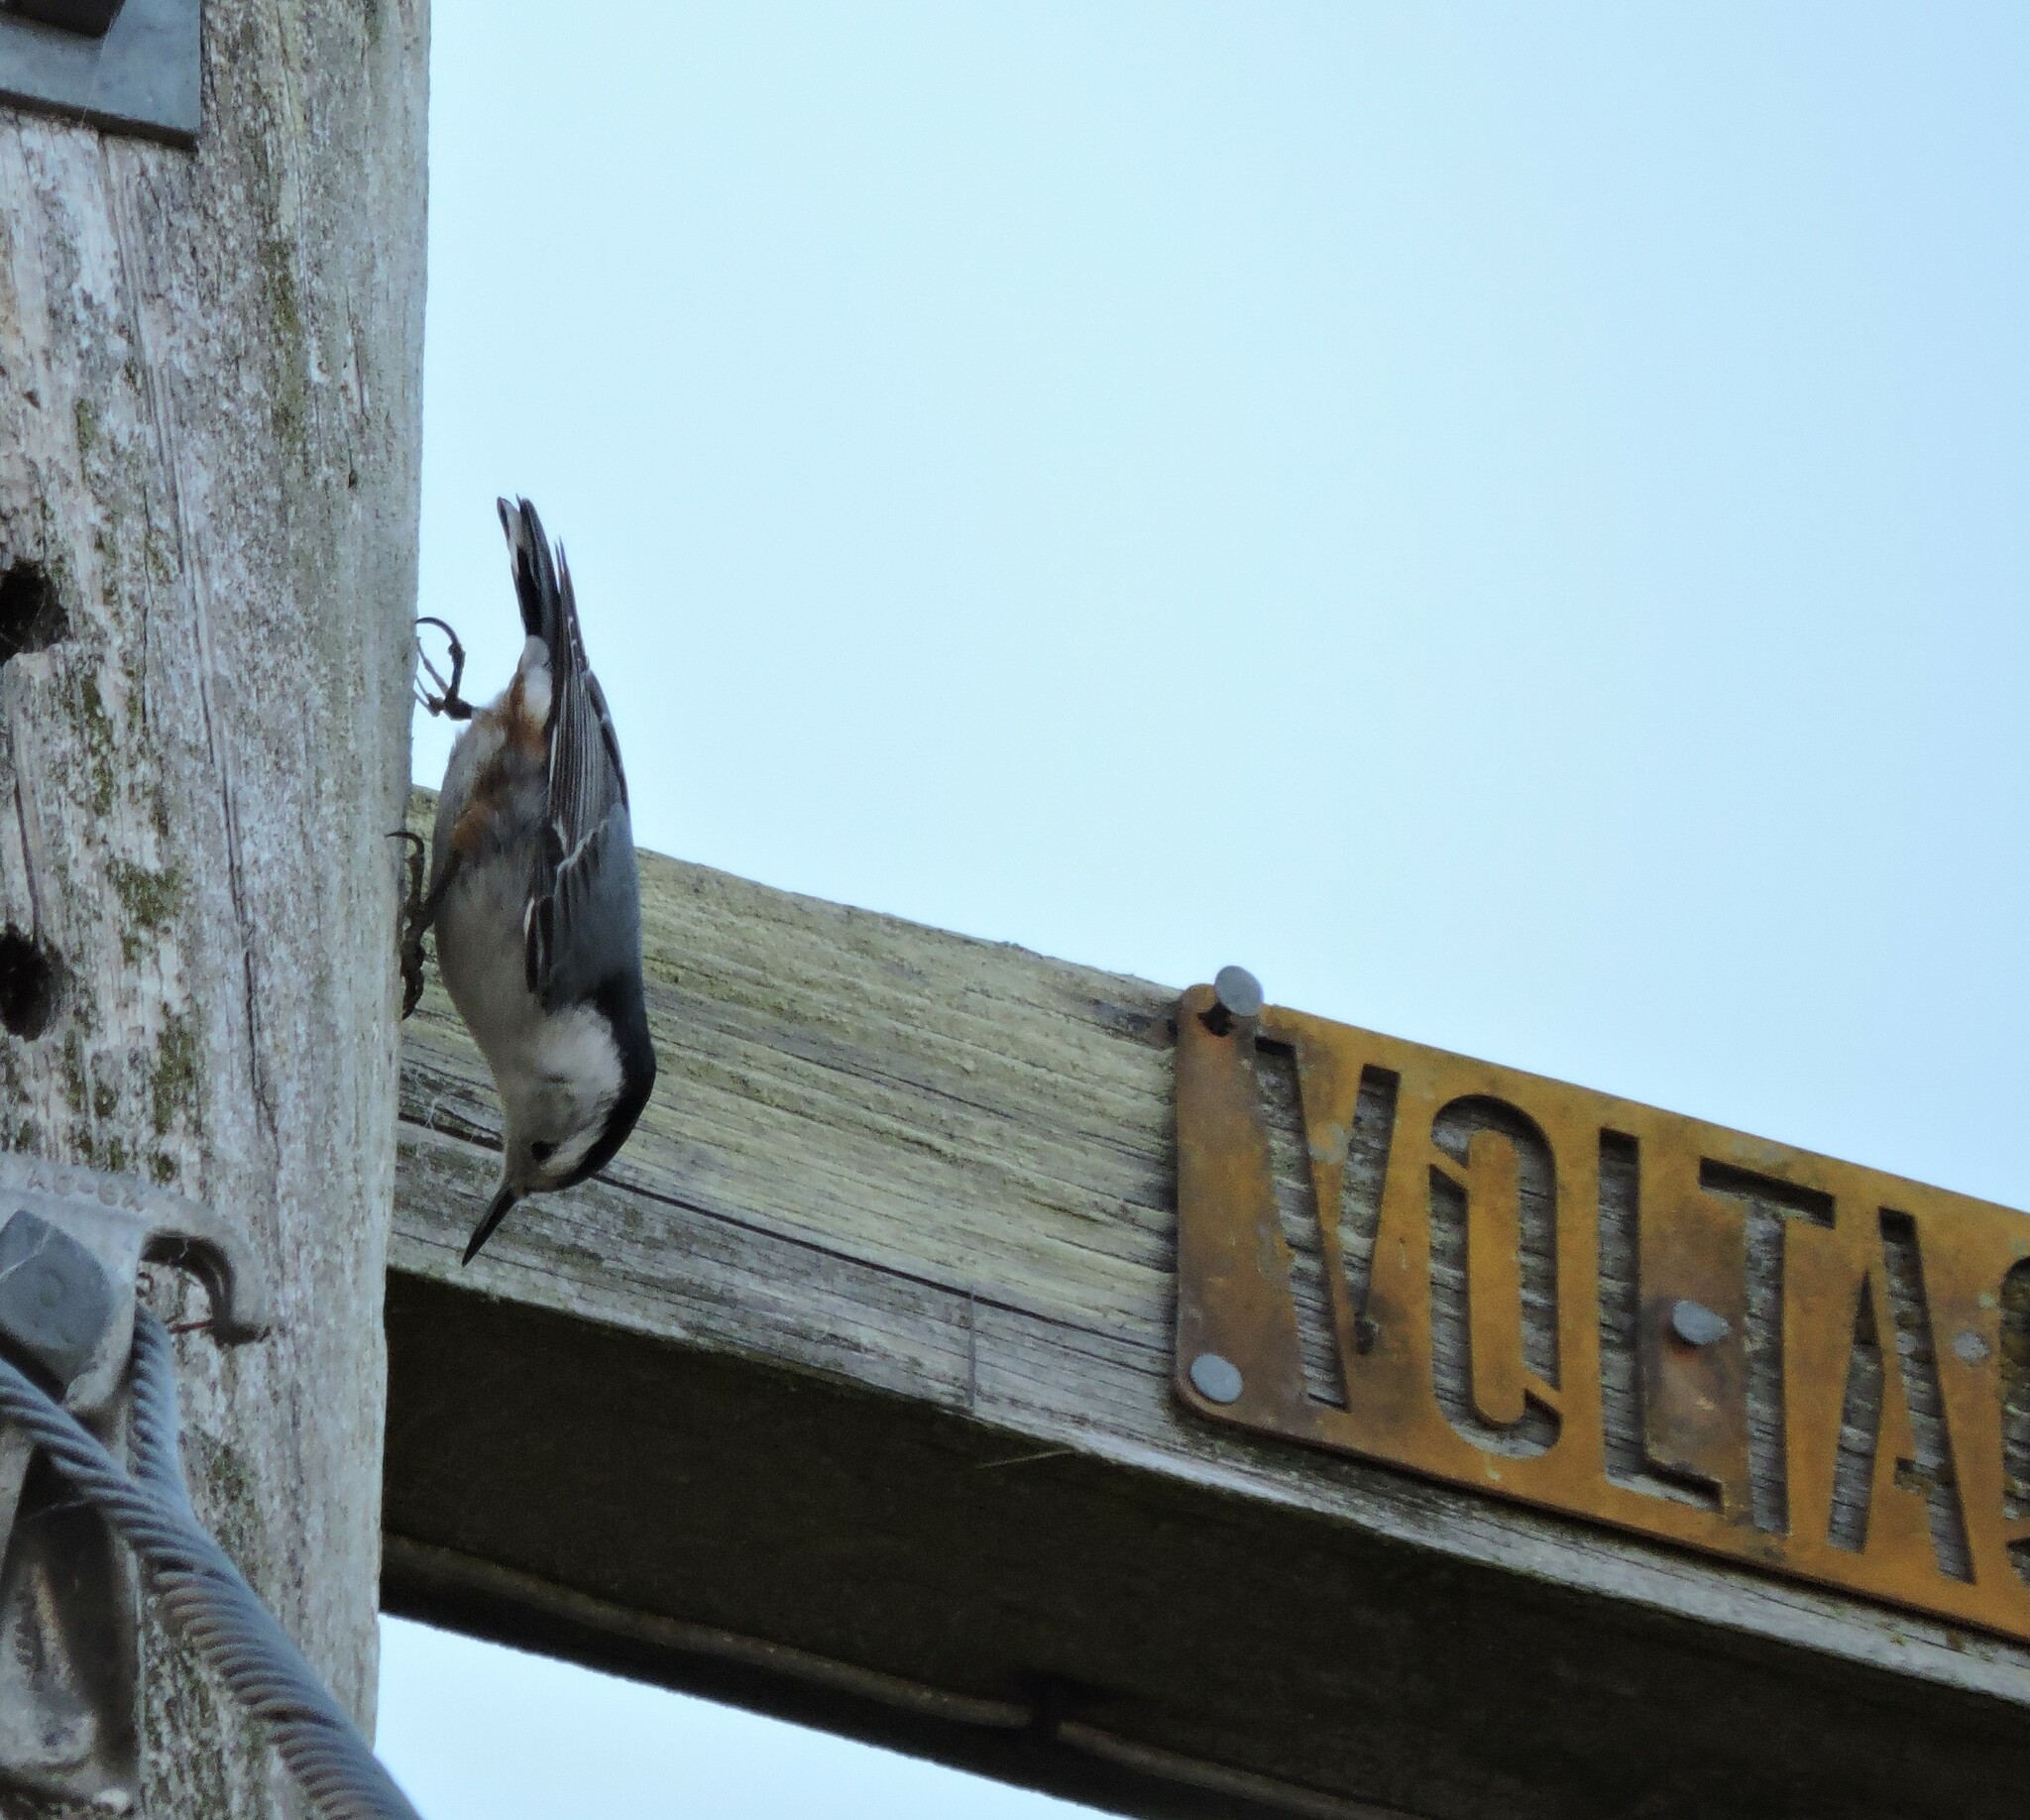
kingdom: Animalia
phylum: Chordata
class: Aves
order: Passeriformes
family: Sittidae
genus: Sitta
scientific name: Sitta carolinensis
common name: White-breasted nuthatch
